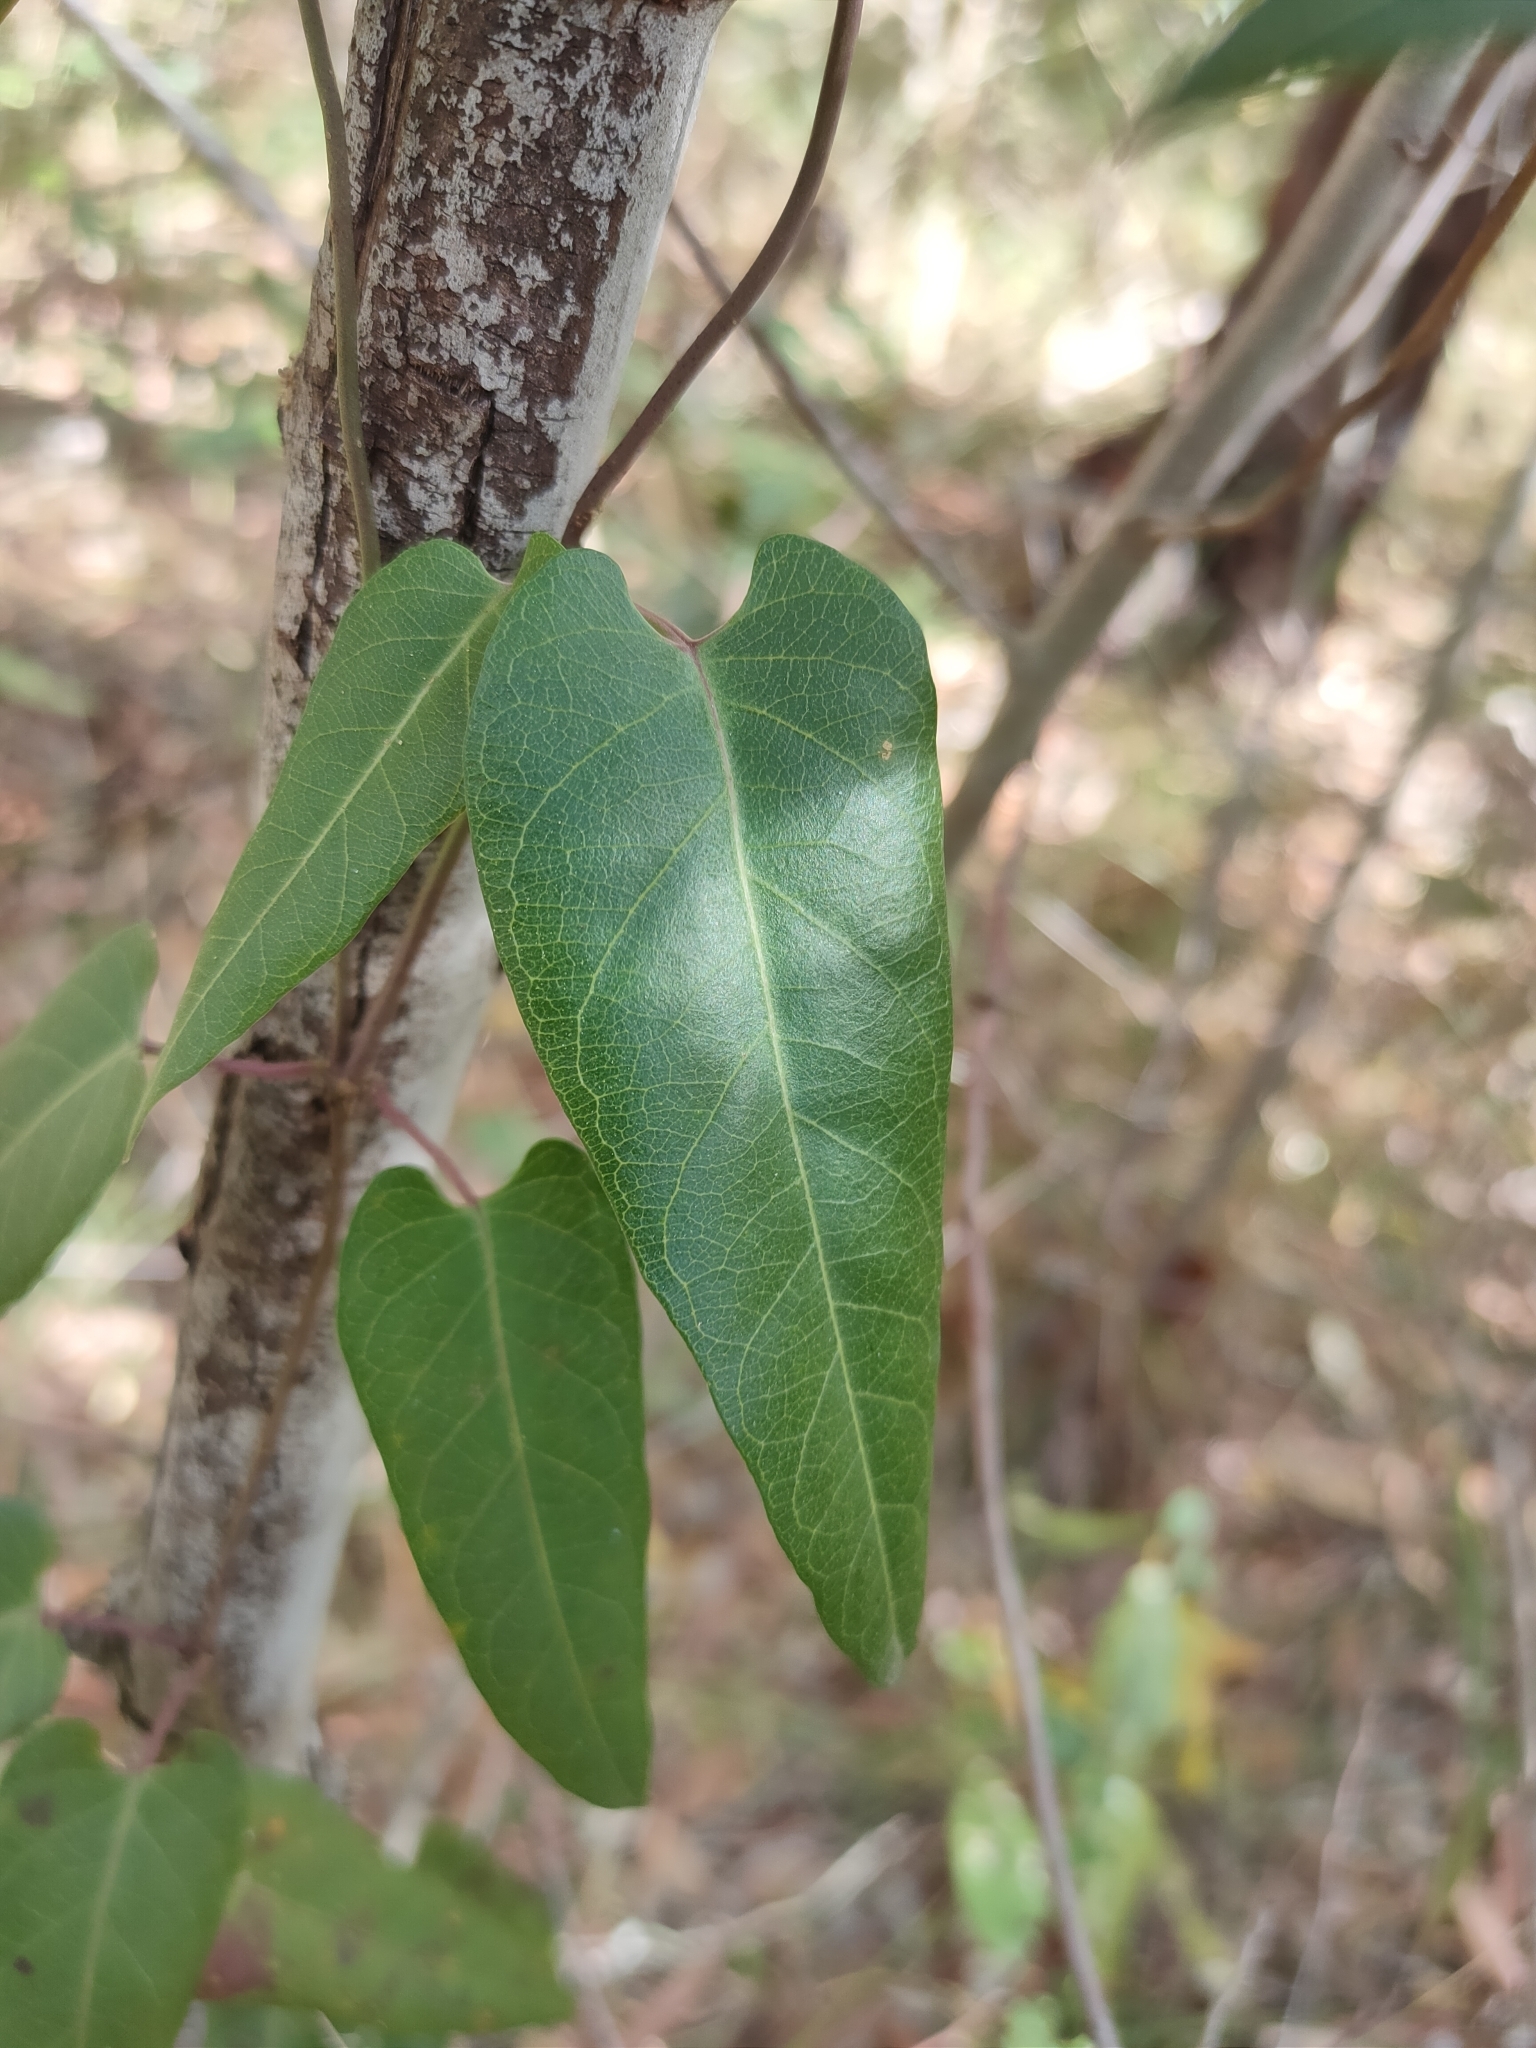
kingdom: Plantae
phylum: Tracheophyta
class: Magnoliopsida
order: Gentianales
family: Apocynaceae
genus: Parsonsia
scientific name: Parsonsia brisbanensis
